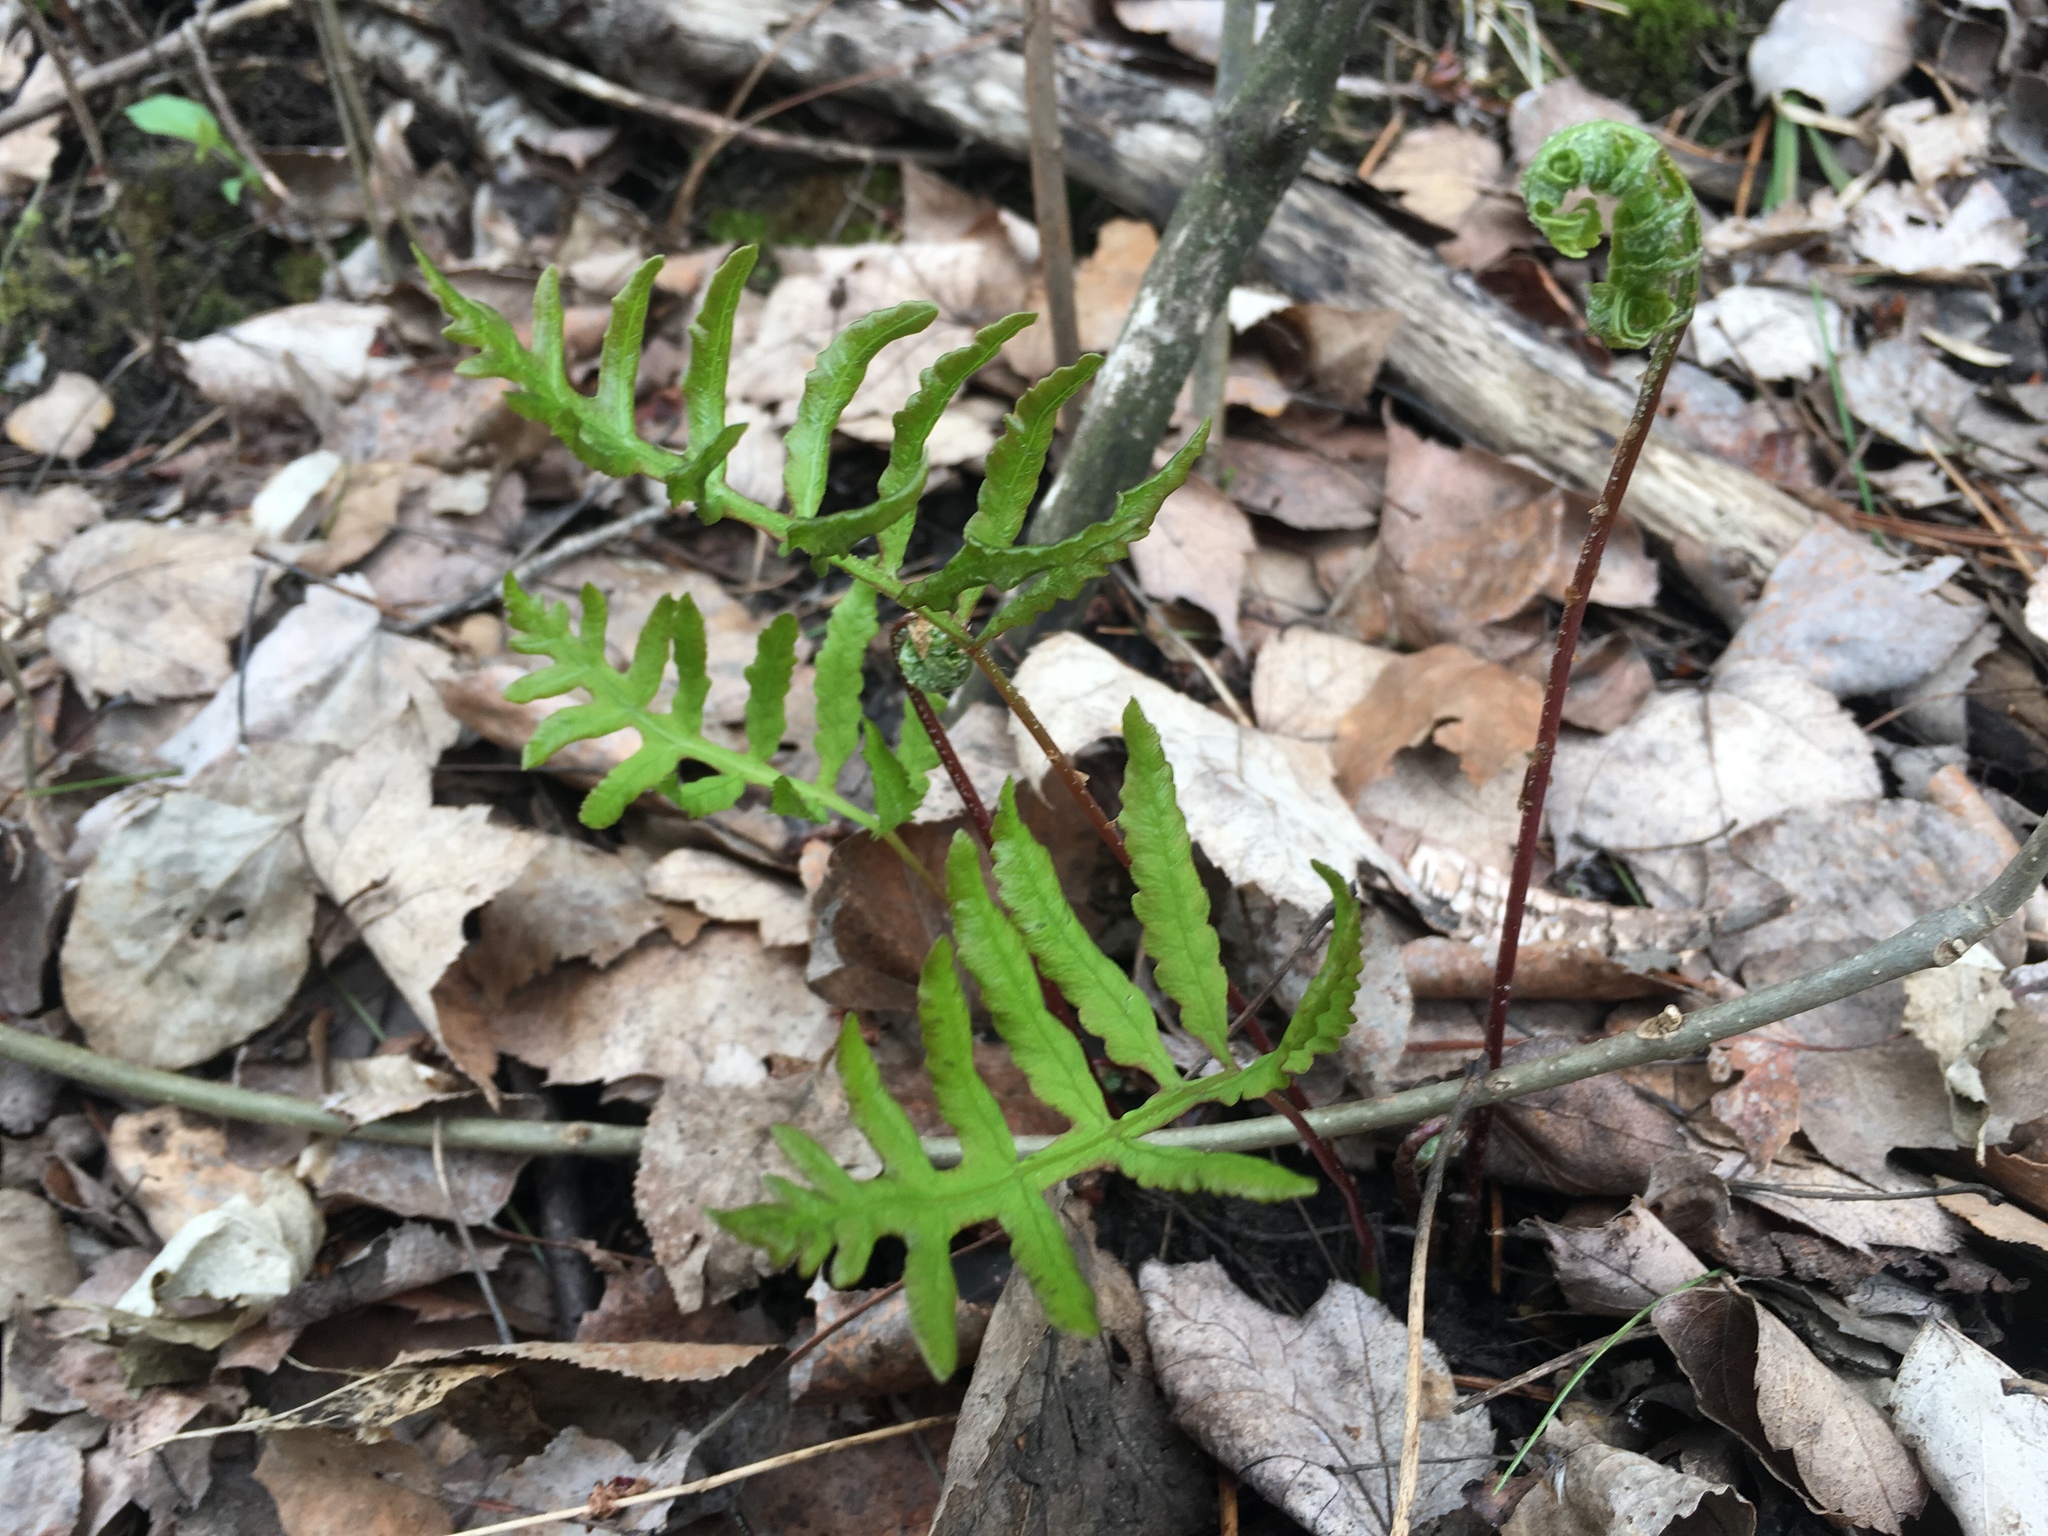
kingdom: Plantae
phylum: Tracheophyta
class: Polypodiopsida
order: Polypodiales
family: Onocleaceae
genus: Onoclea
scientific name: Onoclea sensibilis
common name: Sensitive fern
